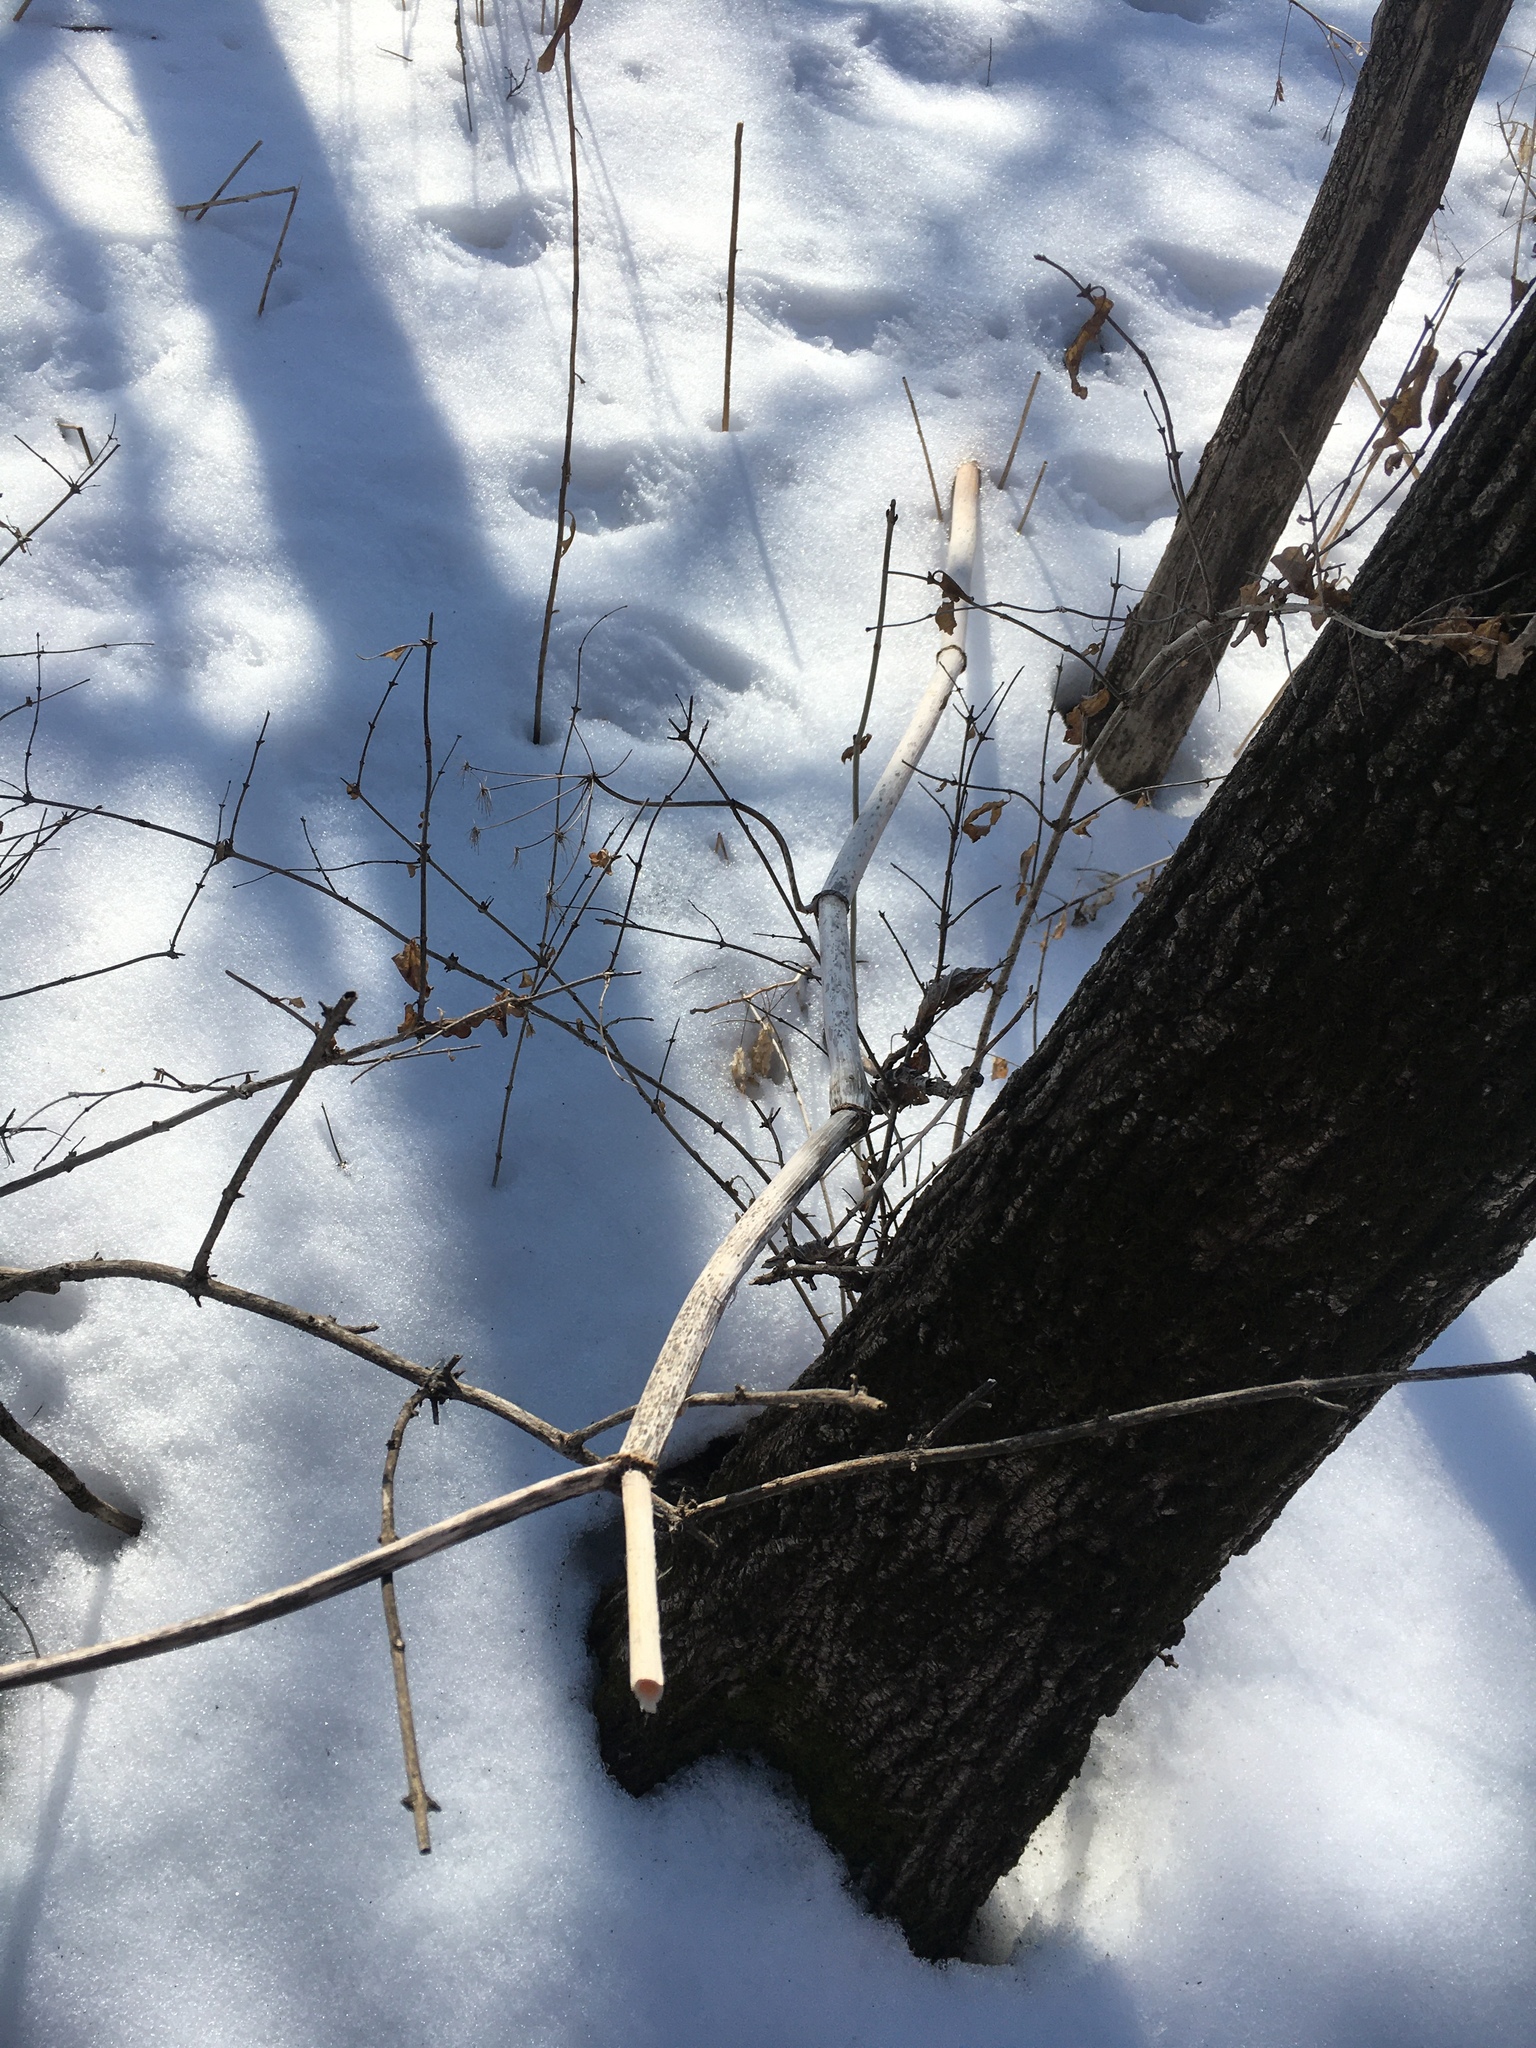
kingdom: Plantae
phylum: Tracheophyta
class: Magnoliopsida
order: Apiales
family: Apiaceae
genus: Angelica
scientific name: Angelica atropurpurea
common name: Great angelica
